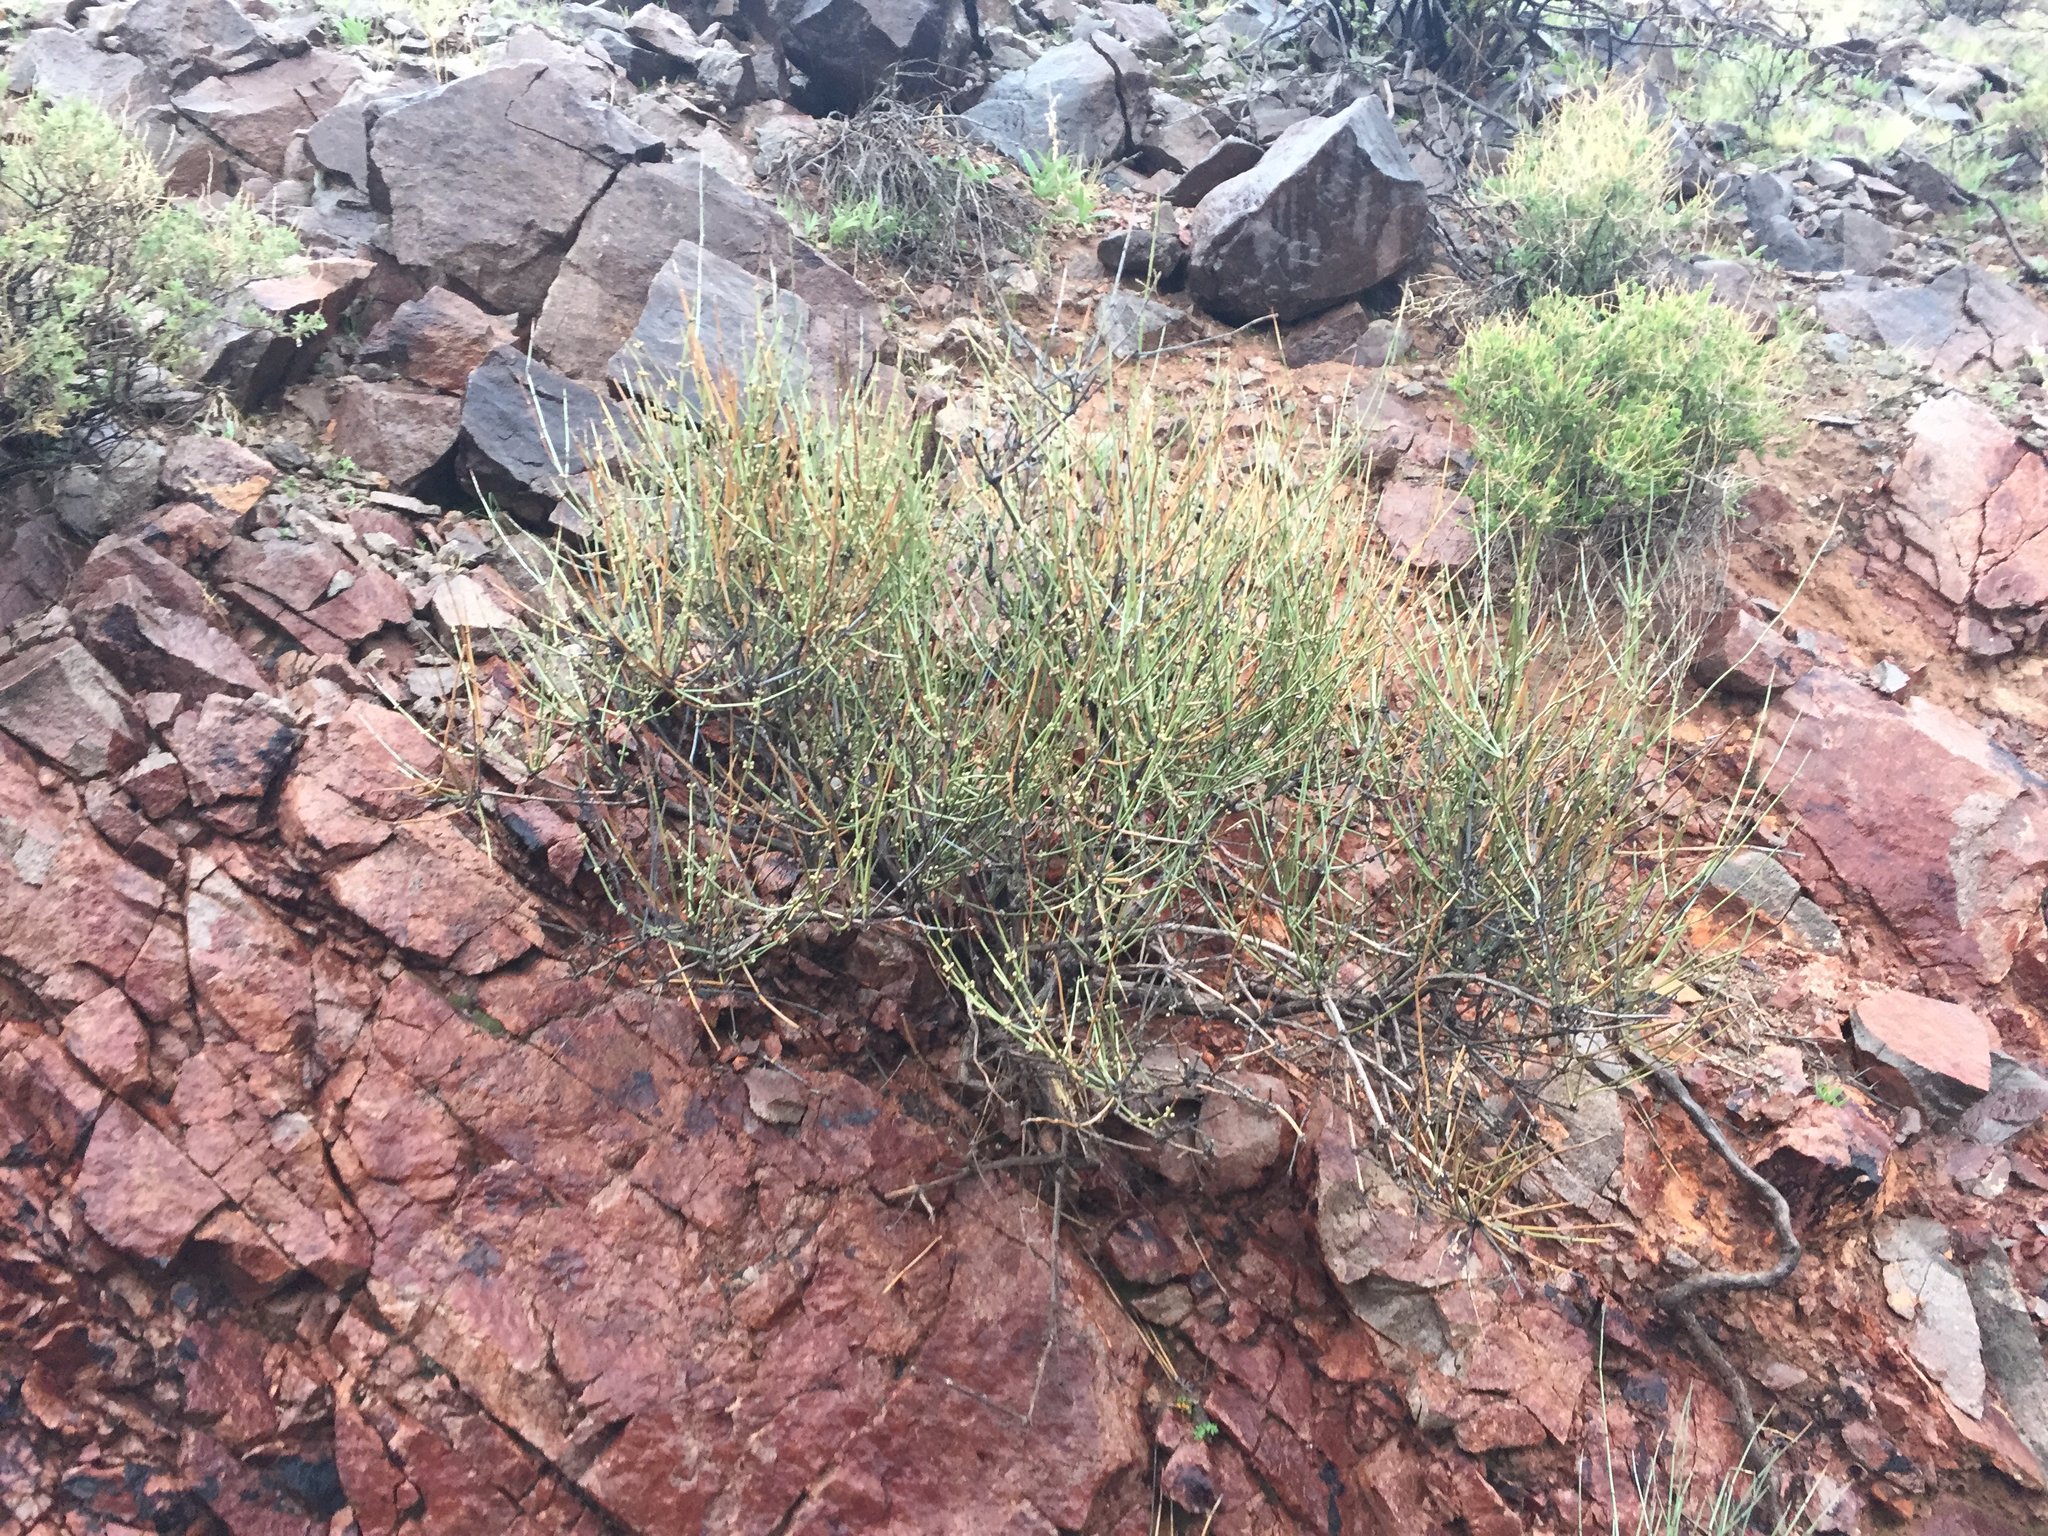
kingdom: Plantae
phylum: Tracheophyta
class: Gnetopsida
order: Ephedrales
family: Ephedraceae
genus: Ephedra
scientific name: Ephedra nevadensis
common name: Gray ephedra
